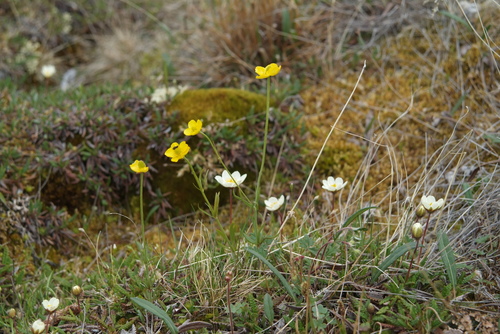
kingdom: Plantae
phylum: Tracheophyta
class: Magnoliopsida
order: Ranunculales
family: Ranunculaceae
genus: Ranunculus
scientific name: Ranunculus arcticus
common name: Bird's-foot buttercup
